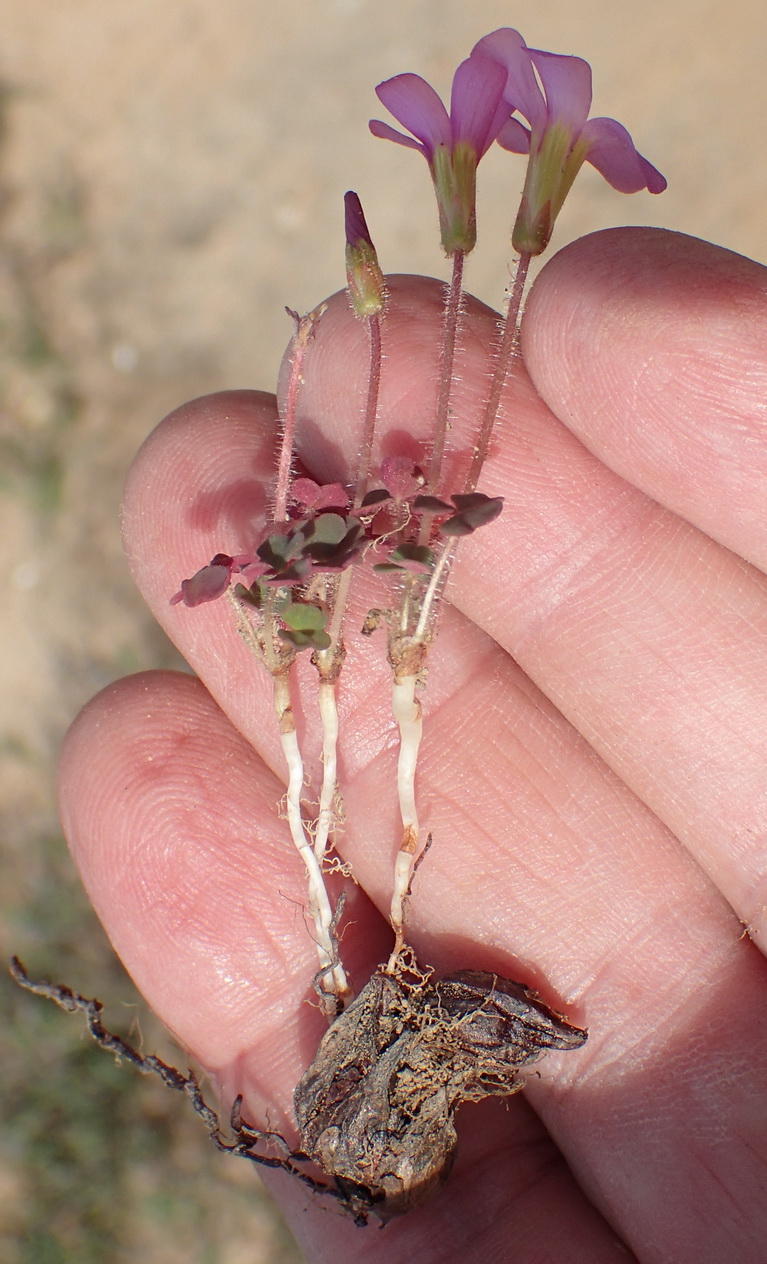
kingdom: Plantae
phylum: Tracheophyta
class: Magnoliopsida
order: Oxalidales
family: Oxalidaceae
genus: Oxalis
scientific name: Oxalis punctata
